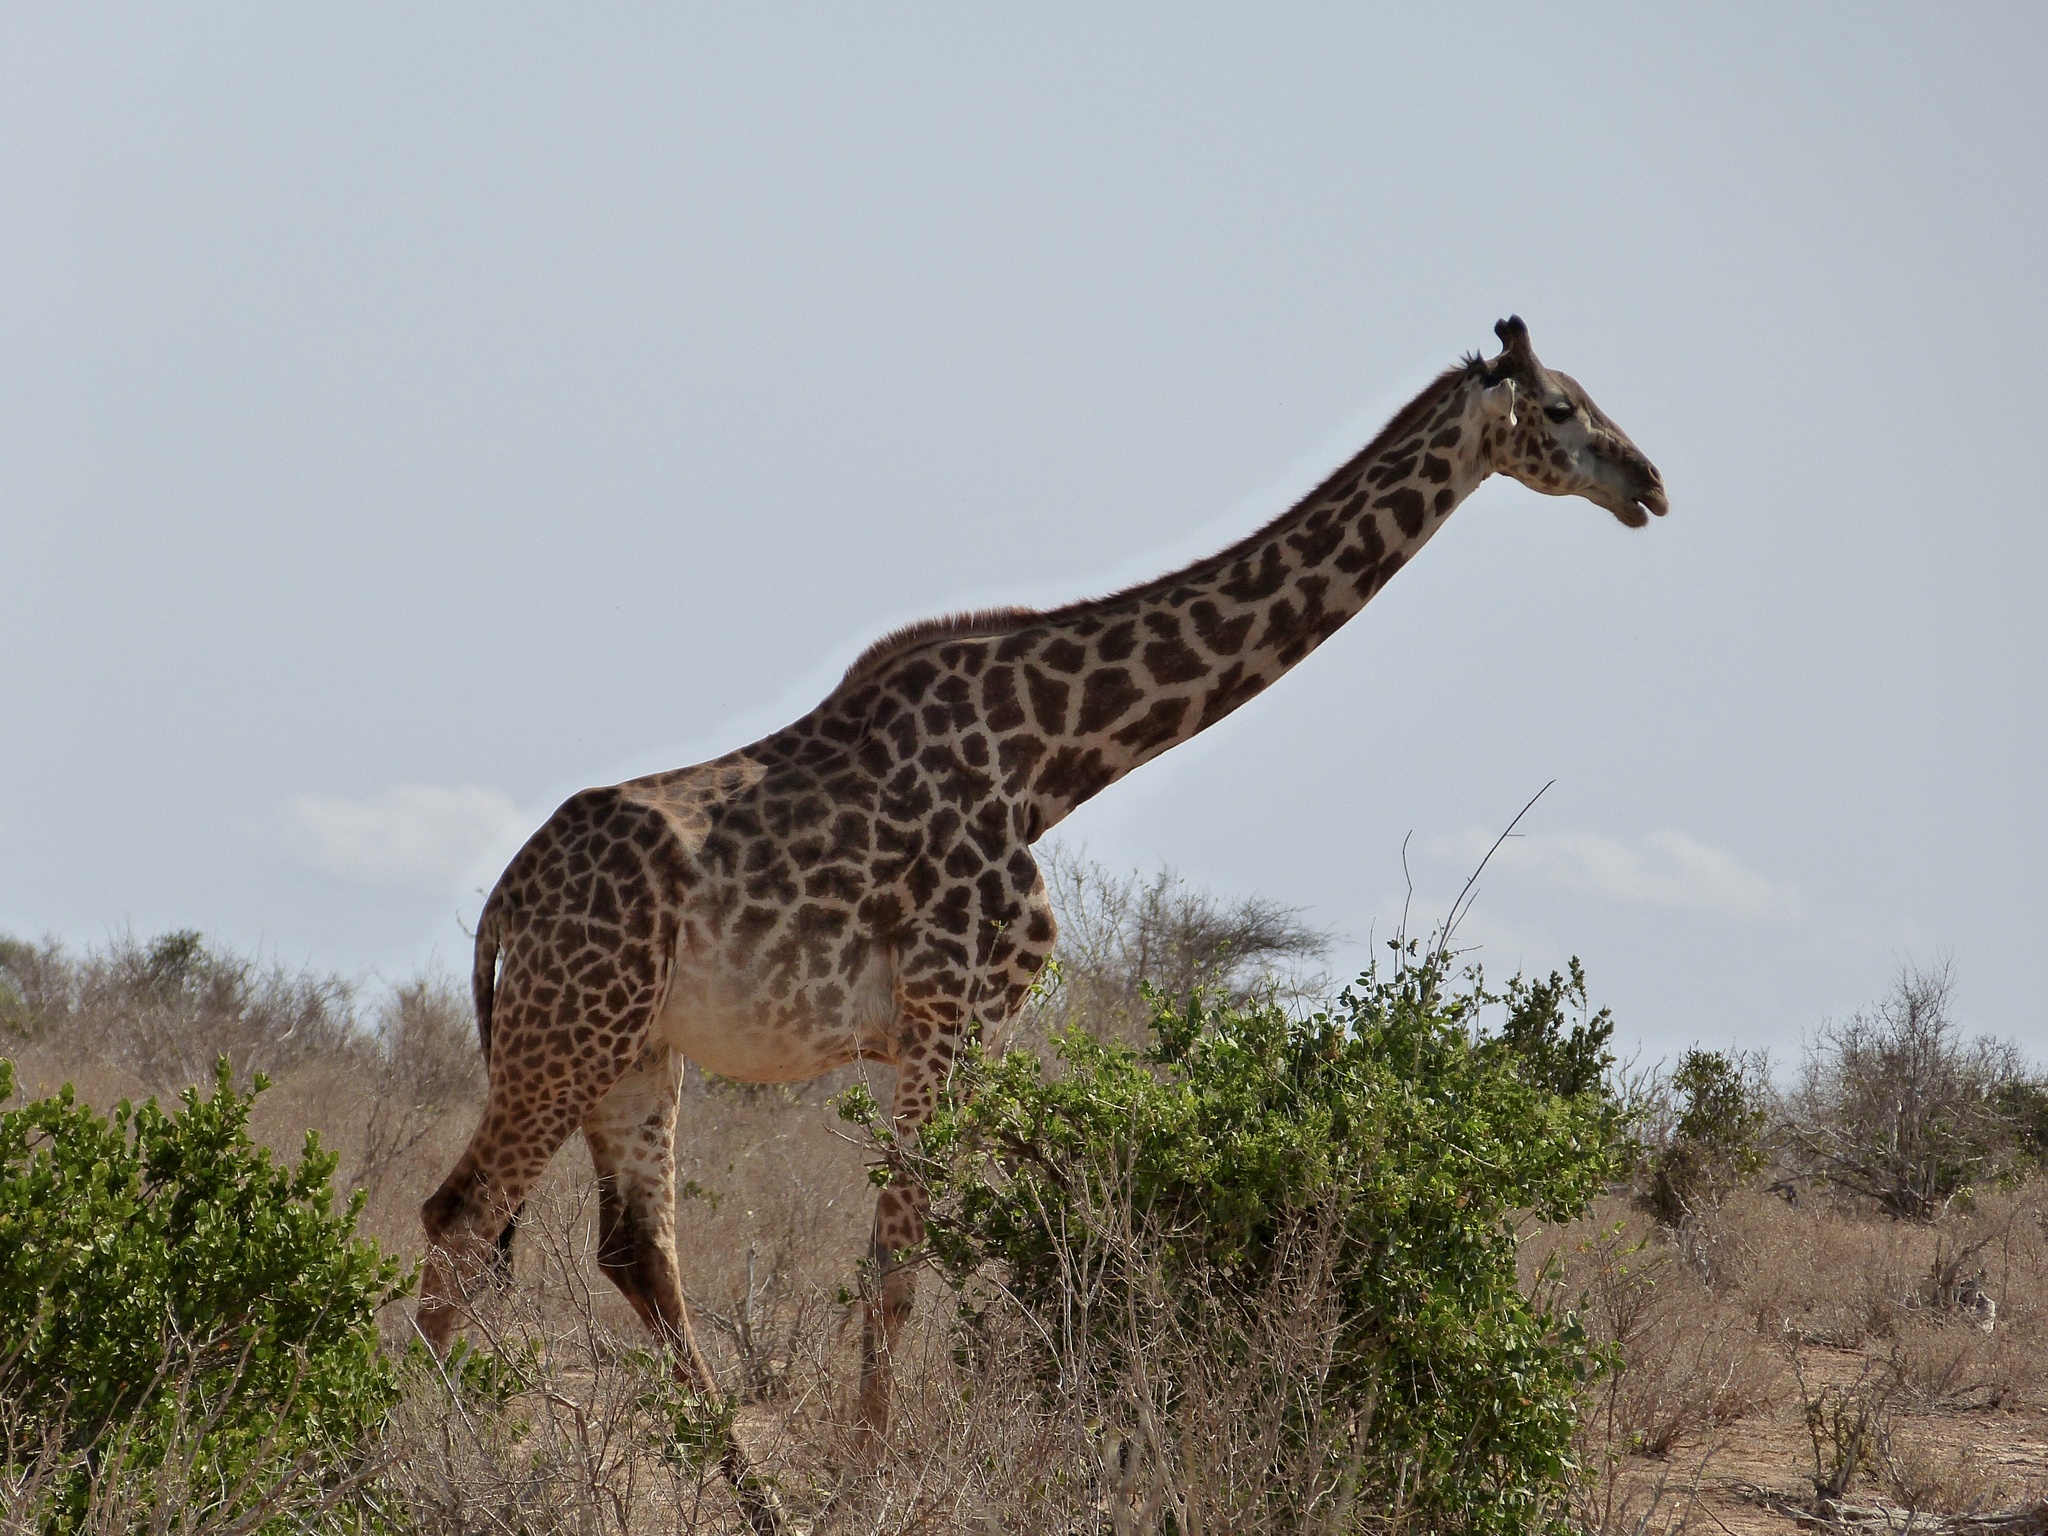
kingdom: Animalia
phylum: Chordata
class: Mammalia
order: Artiodactyla
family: Giraffidae
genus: Giraffa
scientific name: Giraffa tippelskirchi
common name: Masai giraffe
